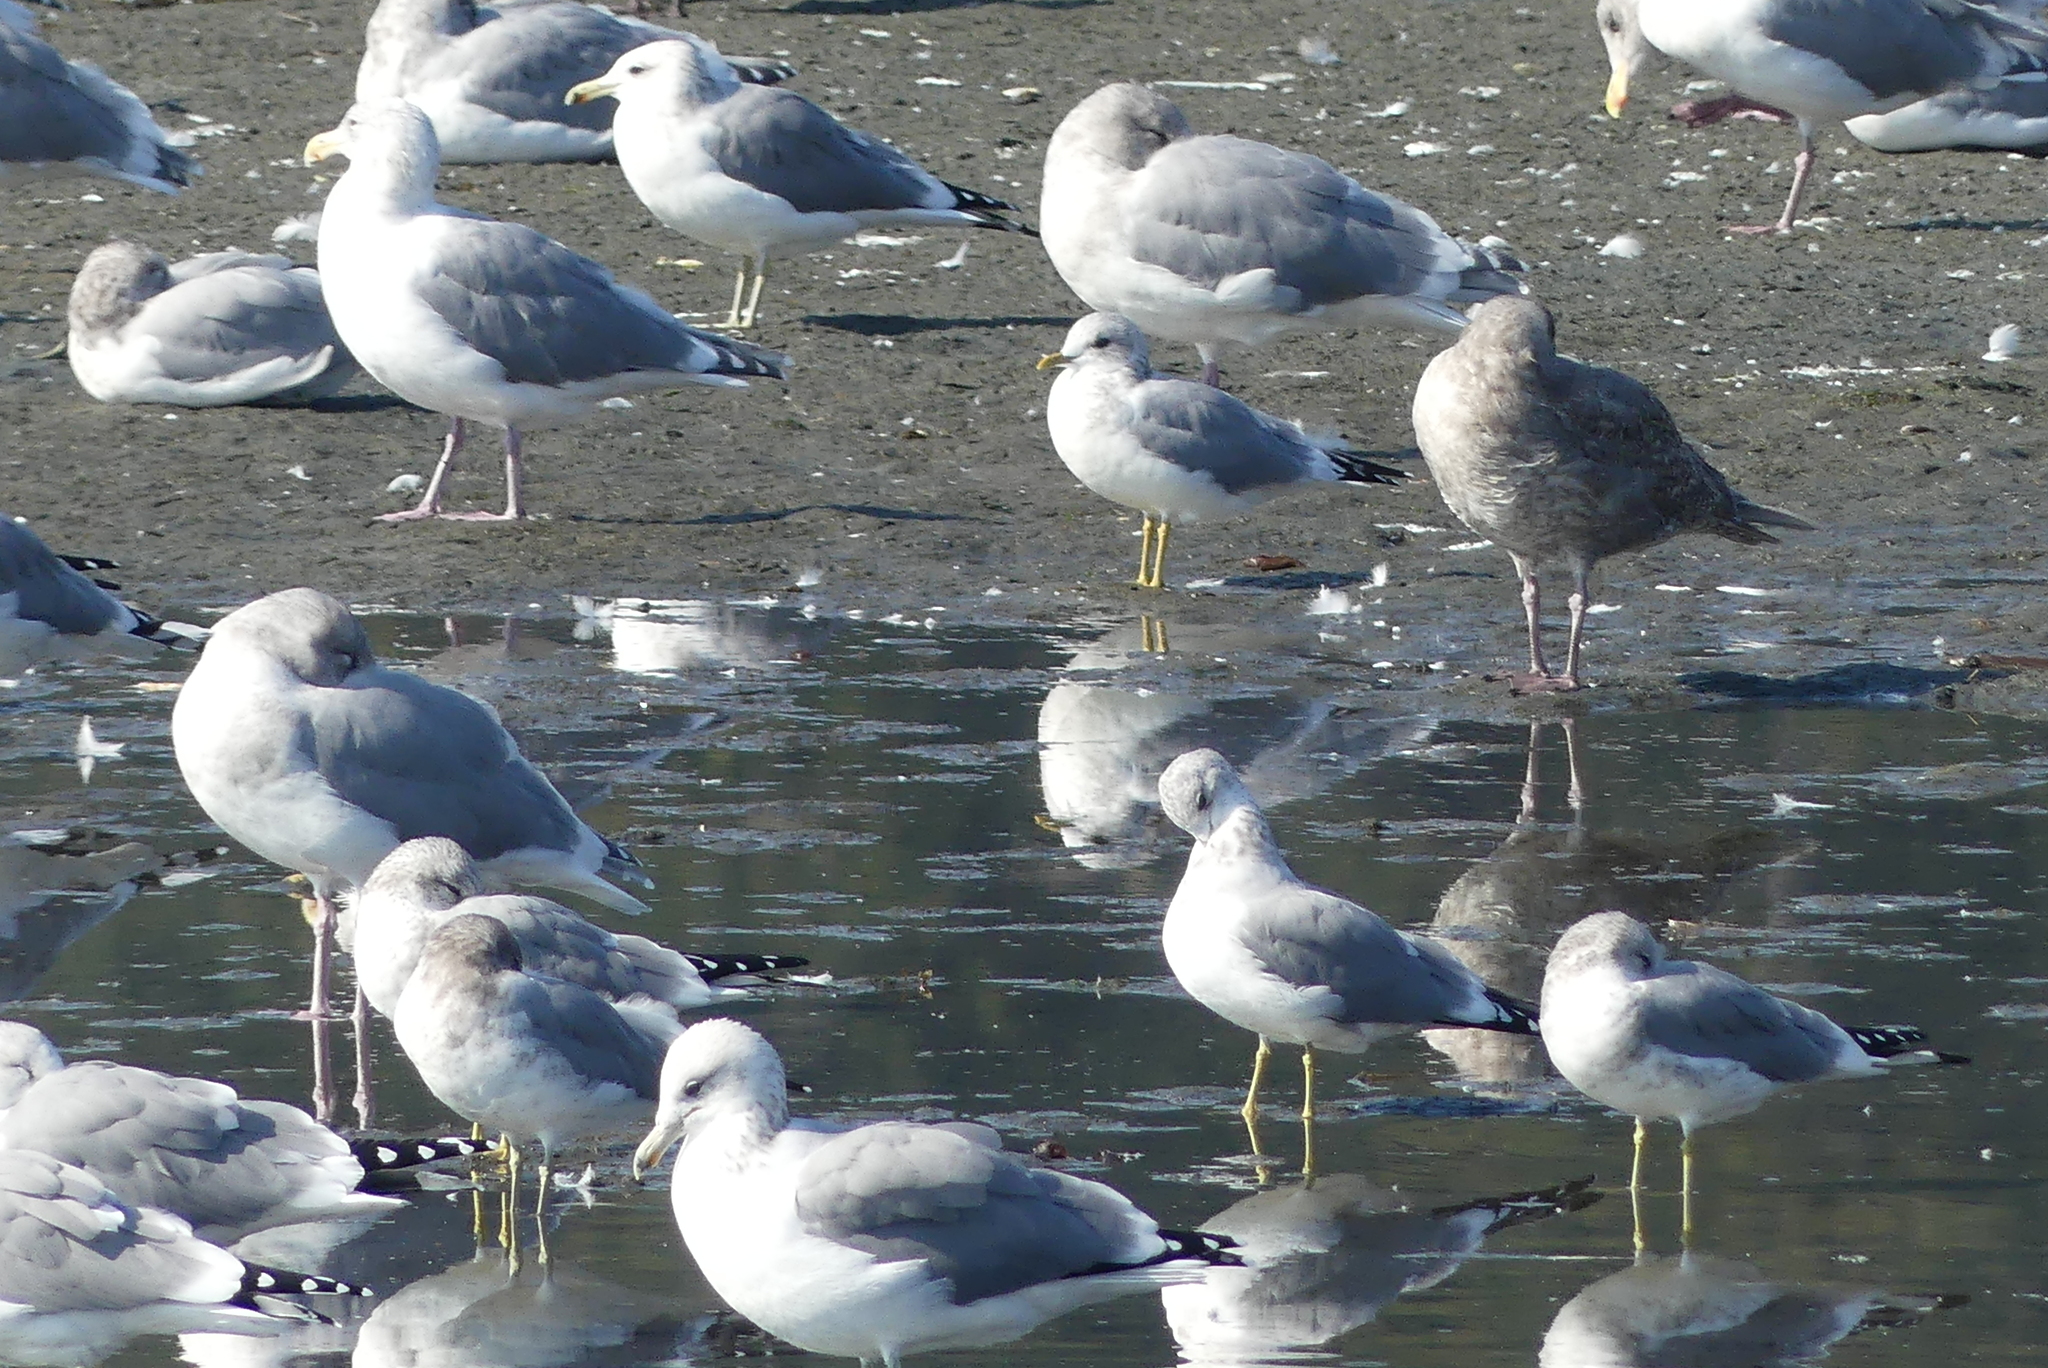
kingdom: Animalia
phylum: Chordata
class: Aves
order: Charadriiformes
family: Laridae
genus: Larus
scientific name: Larus brachyrhynchus
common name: Short-billed gull
